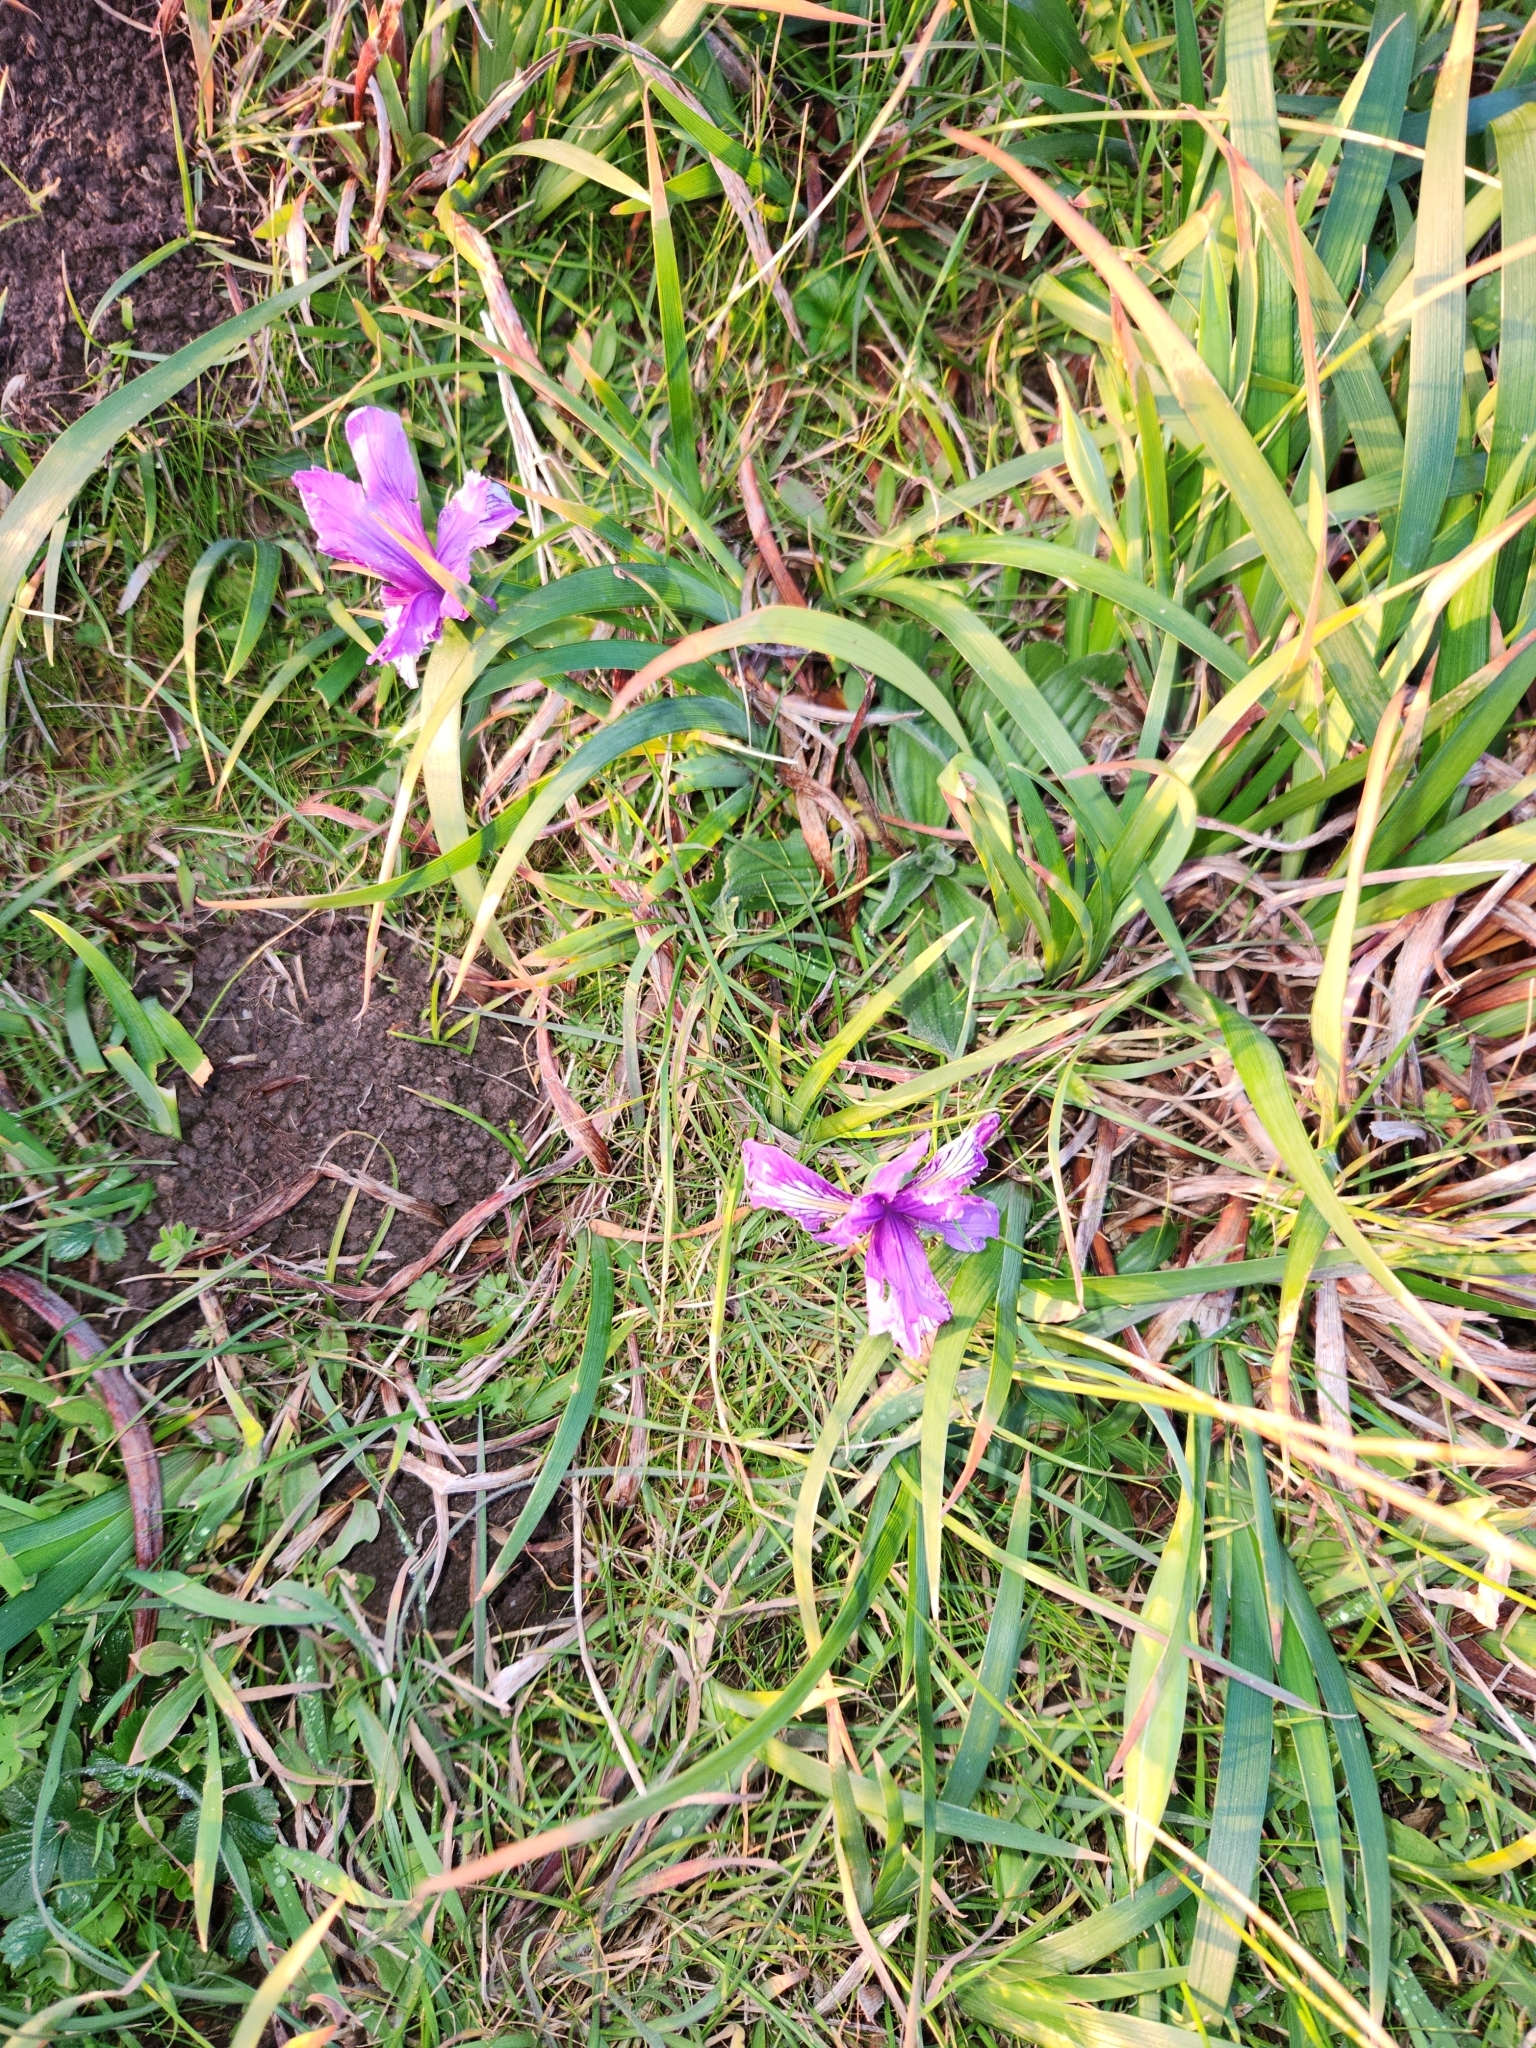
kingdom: Plantae
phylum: Tracheophyta
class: Liliopsida
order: Asparagales
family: Iridaceae
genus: Iris
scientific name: Iris douglasiana
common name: Marin iris
